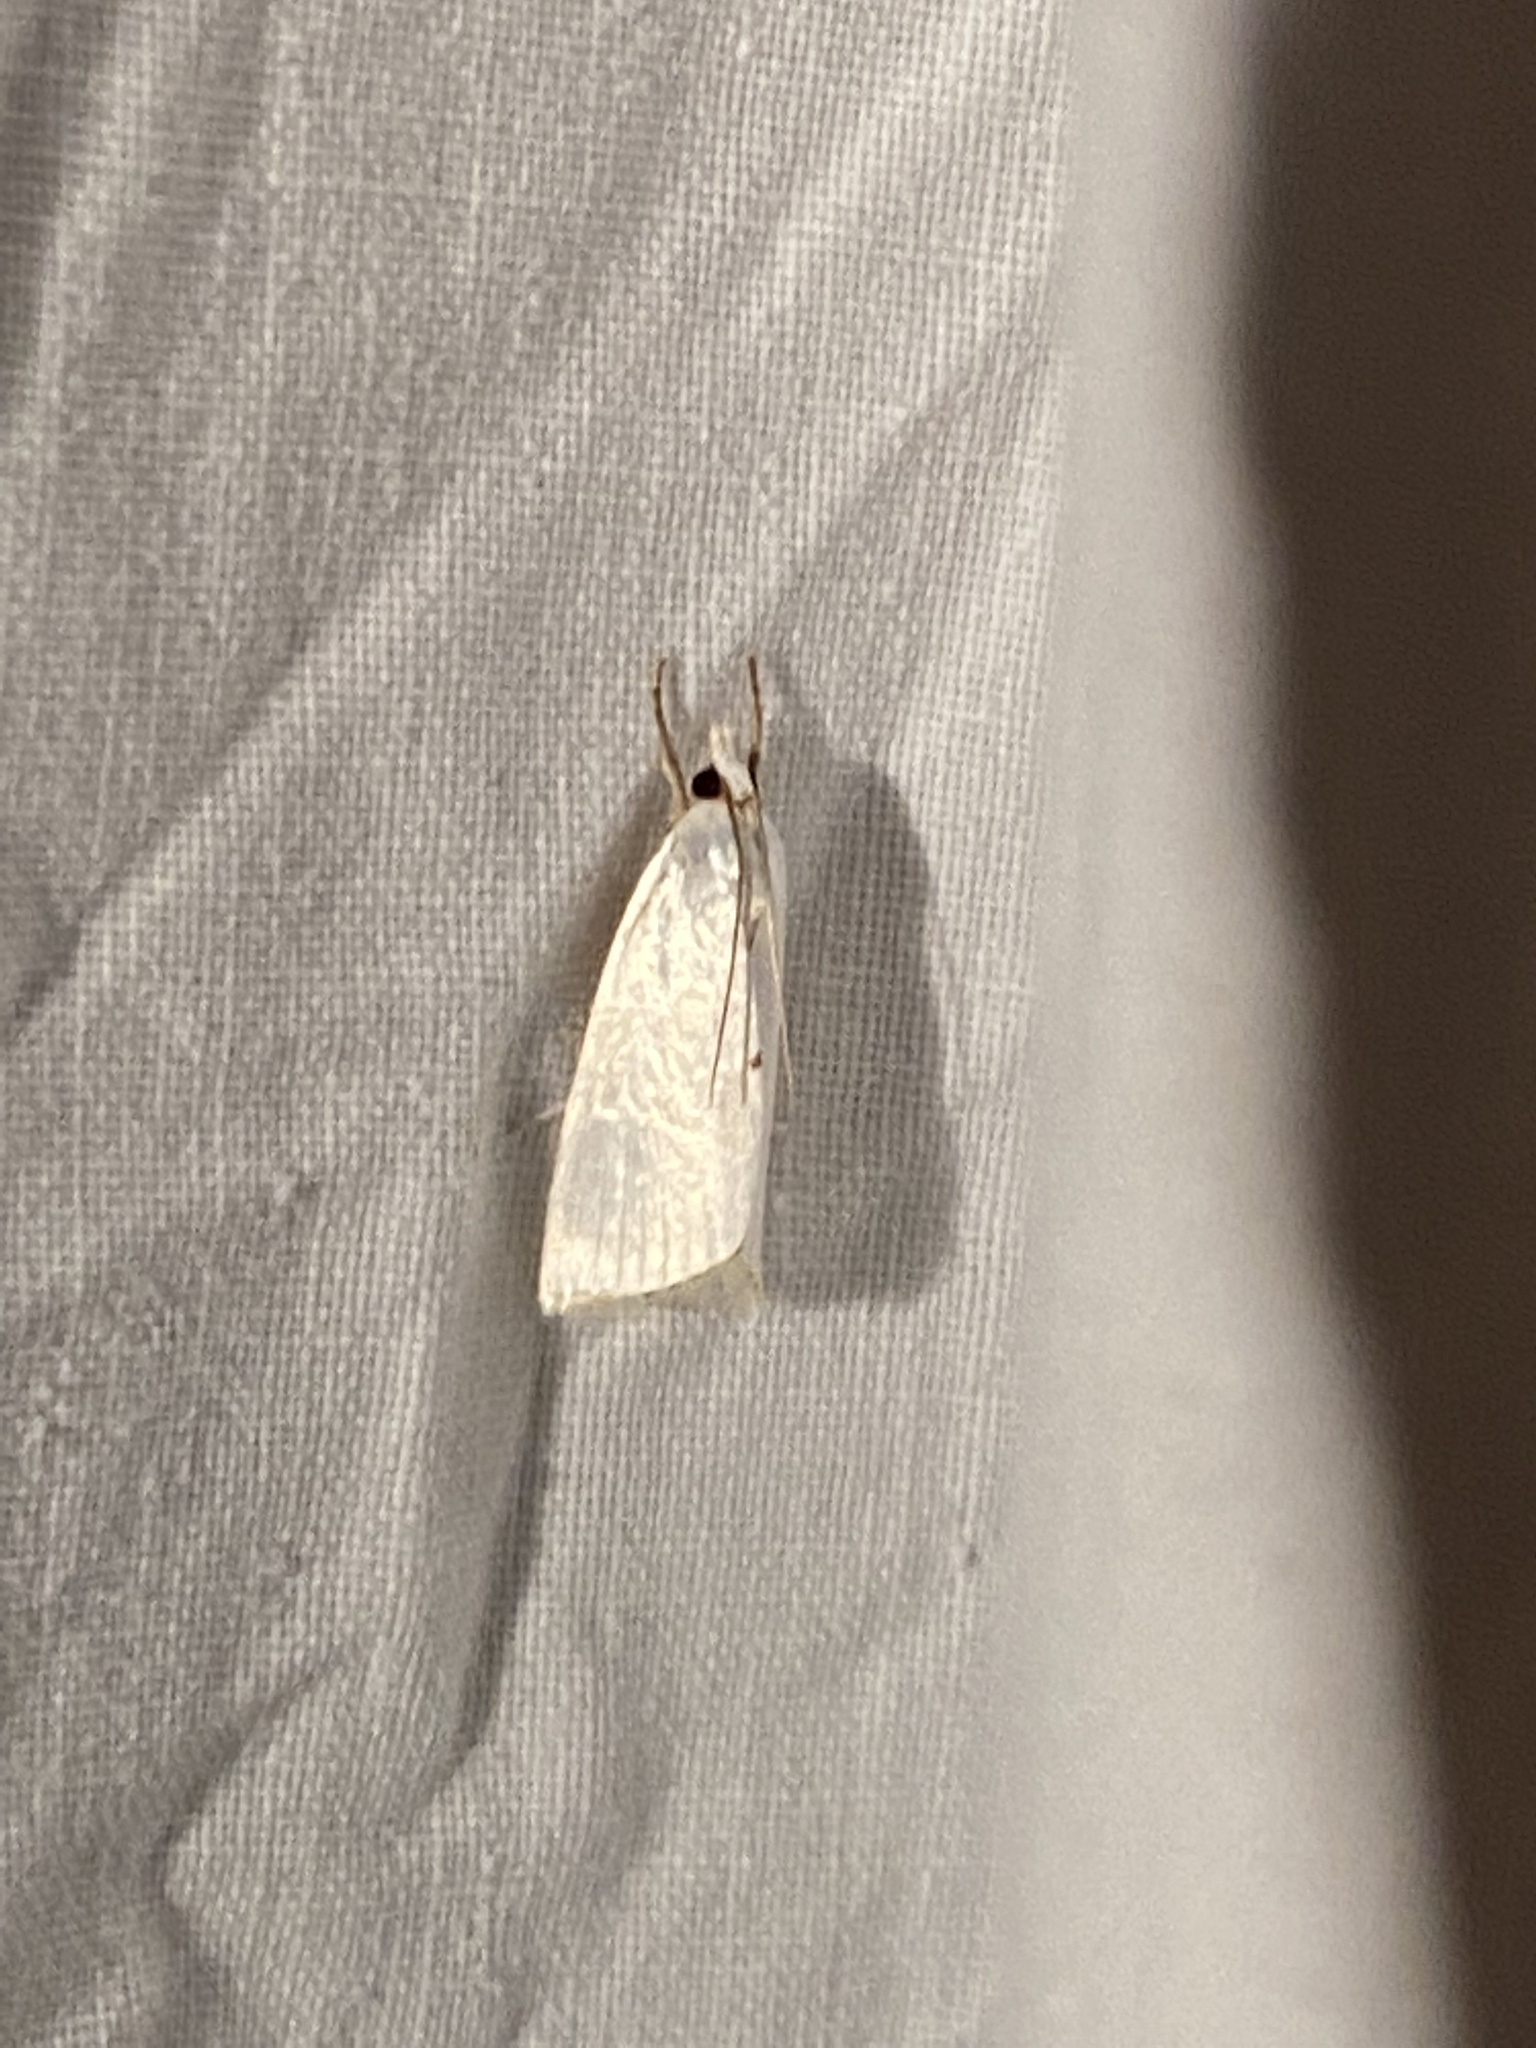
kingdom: Animalia
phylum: Arthropoda
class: Insecta
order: Lepidoptera
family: Crambidae
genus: Argyria
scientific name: Argyria nivalis
